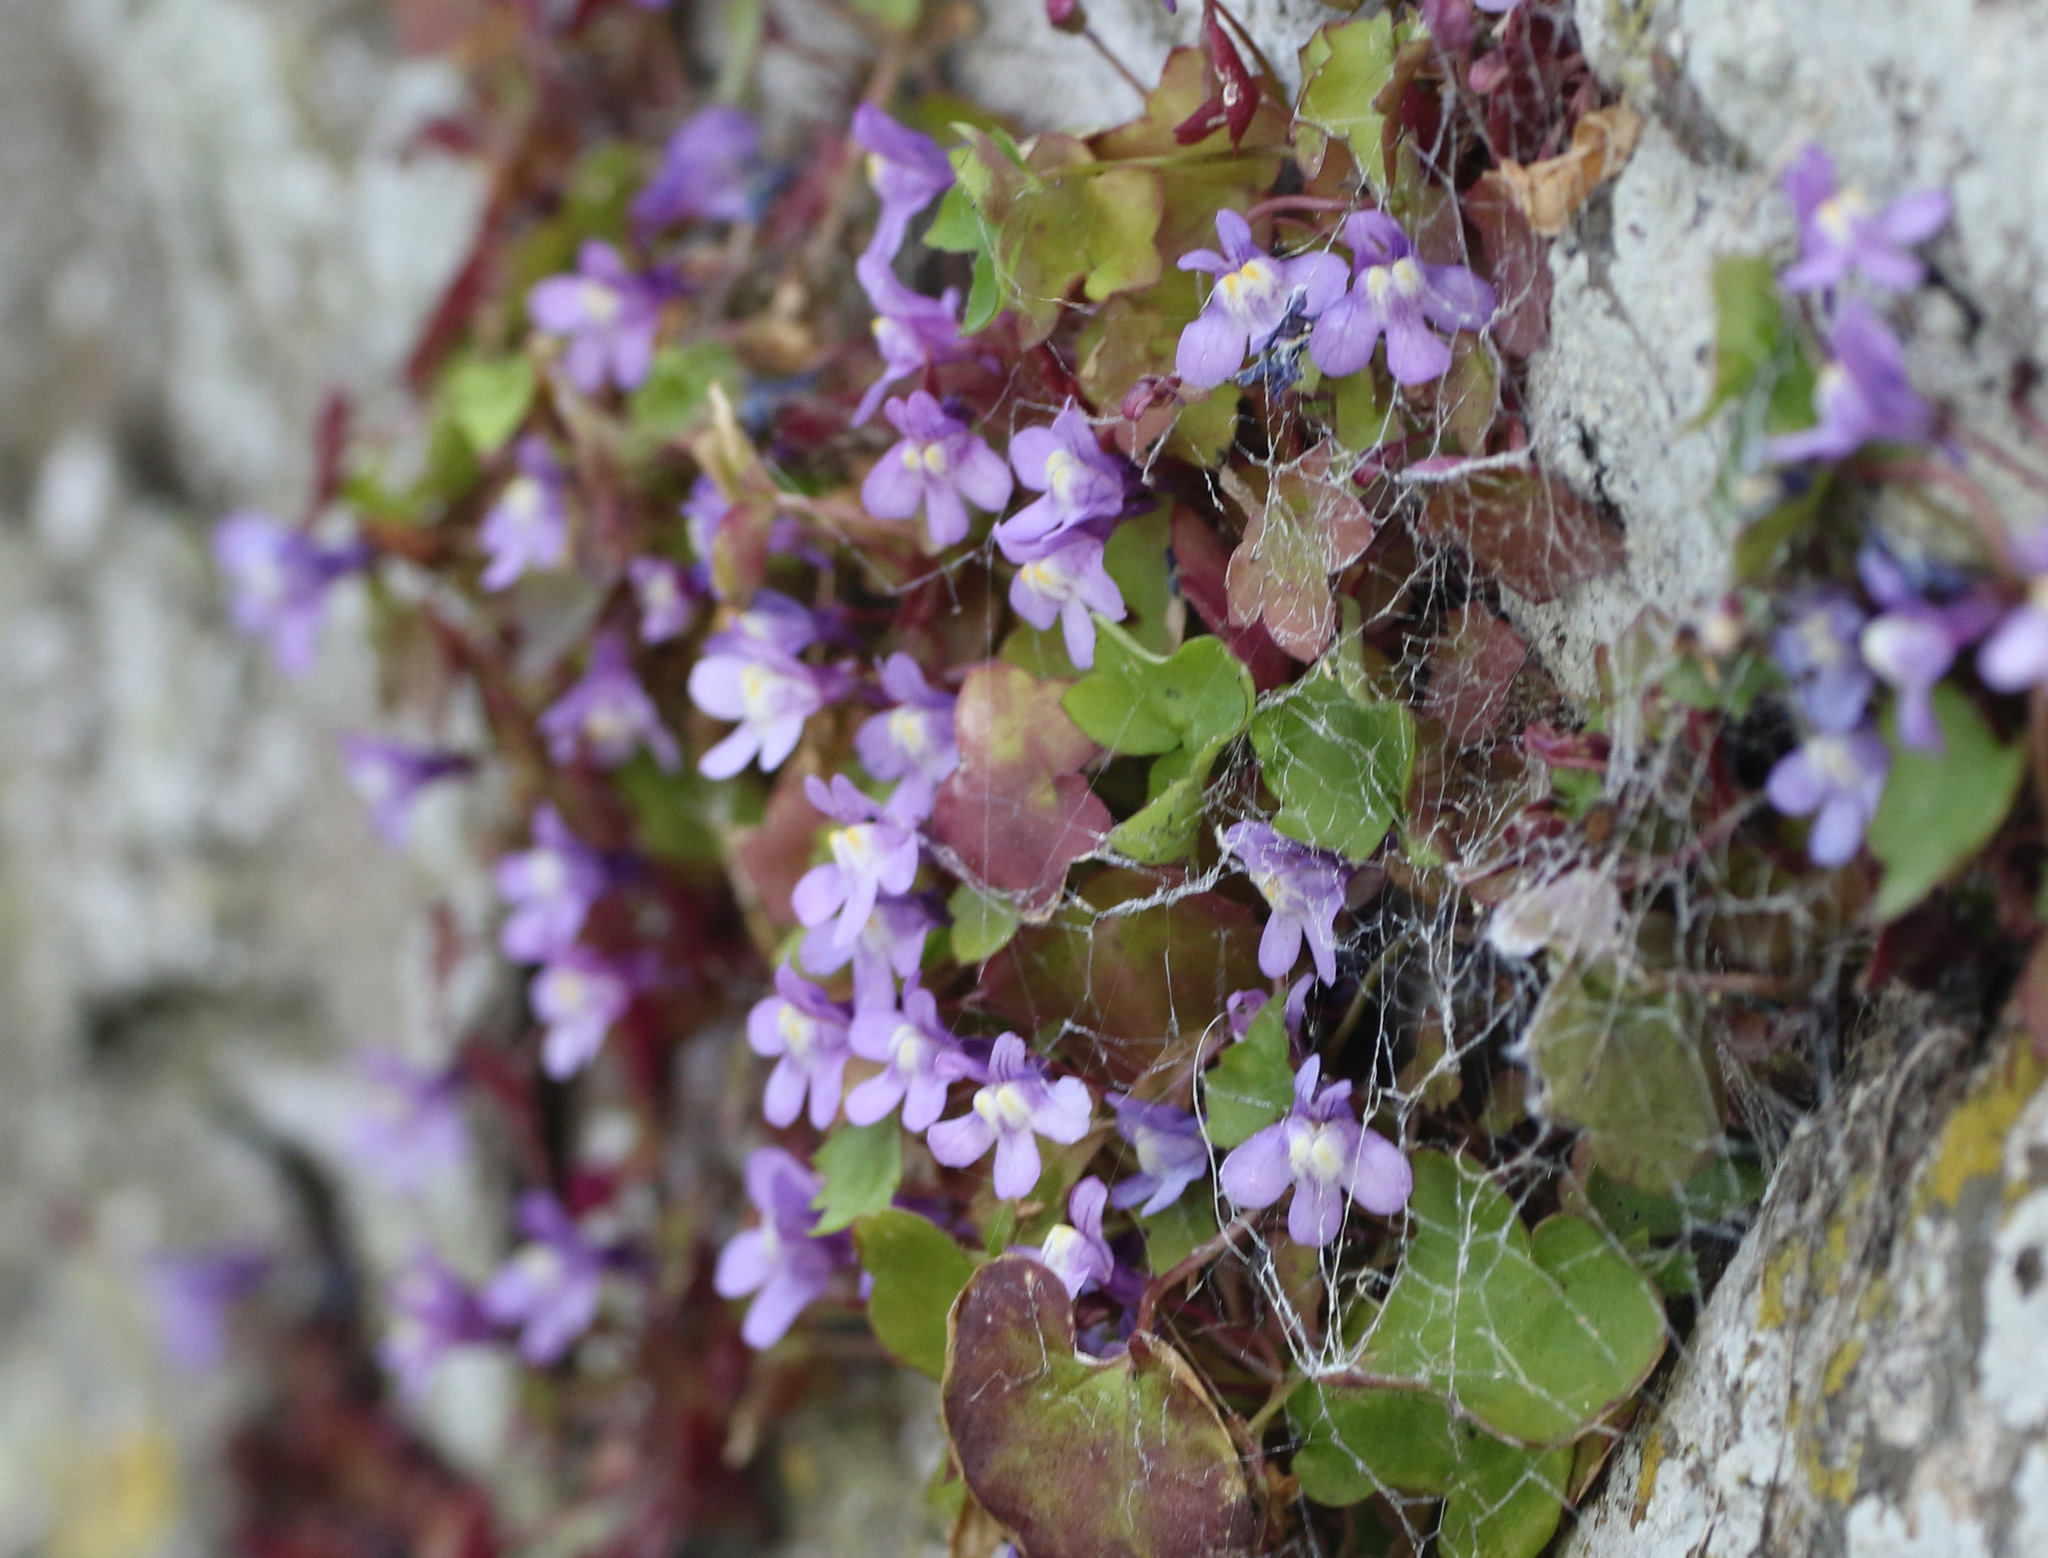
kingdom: Plantae
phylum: Tracheophyta
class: Magnoliopsida
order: Lamiales
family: Plantaginaceae
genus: Cymbalaria
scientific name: Cymbalaria muralis
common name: Ivy-leaved toadflax
